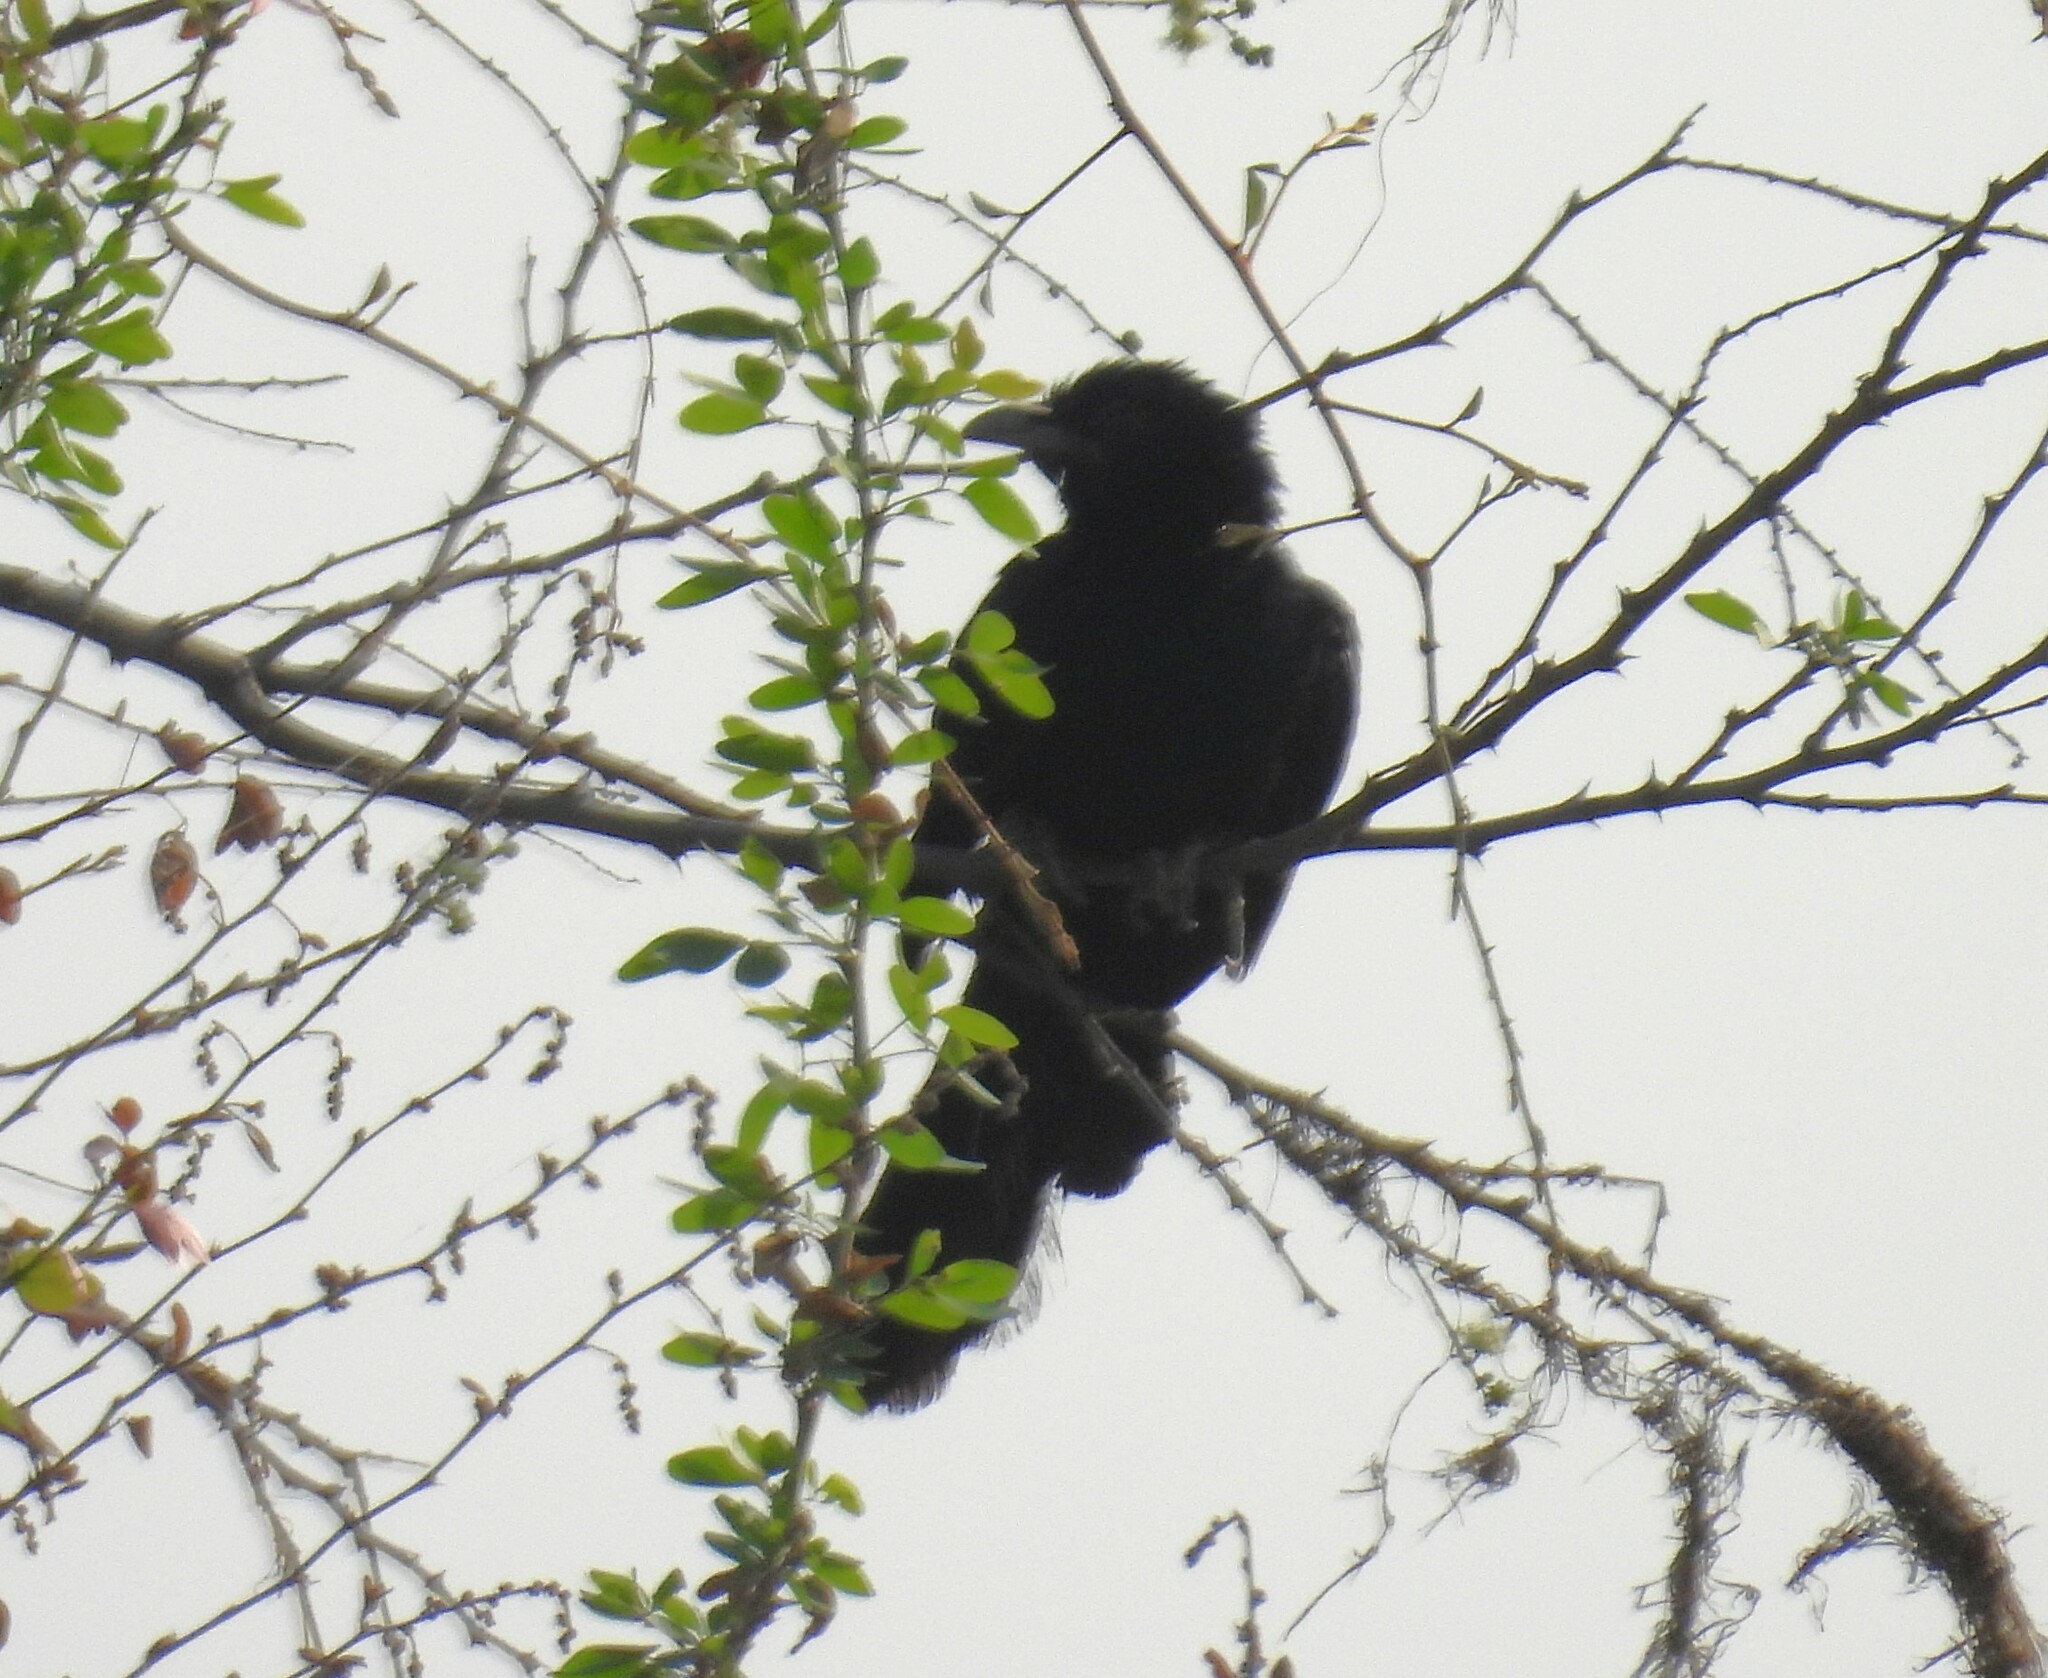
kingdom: Animalia
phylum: Chordata
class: Aves
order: Cuculiformes
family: Cuculidae
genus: Eudynamys
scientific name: Eudynamys scolopaceus
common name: Asian koel
